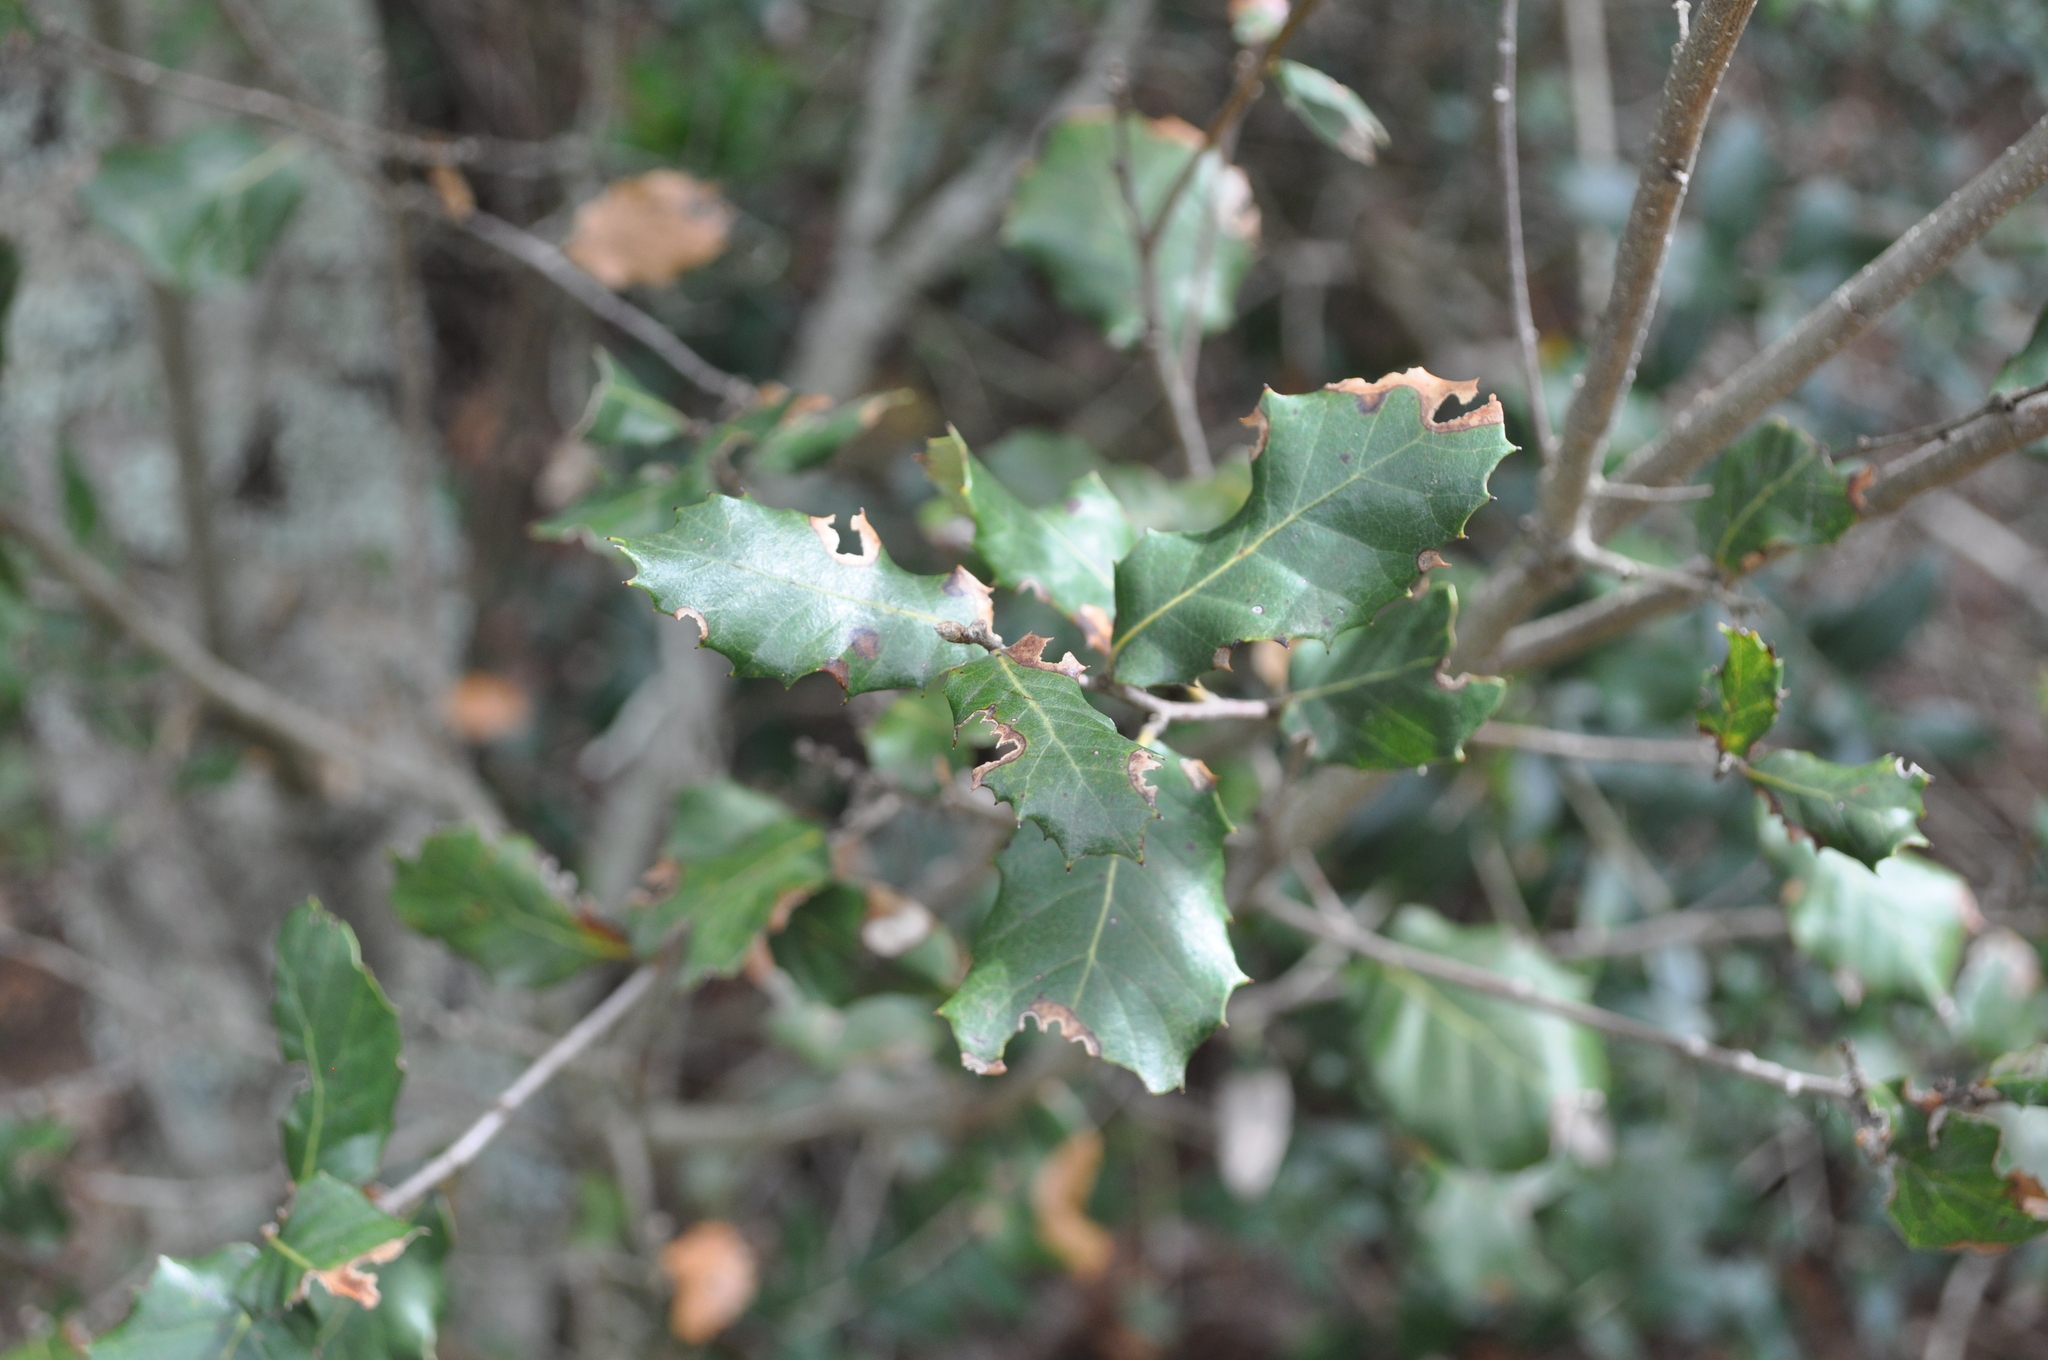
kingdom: Plantae
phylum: Tracheophyta
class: Magnoliopsida
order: Fagales
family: Fagaceae
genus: Quercus
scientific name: Quercus ilex
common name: Evergreen oak
